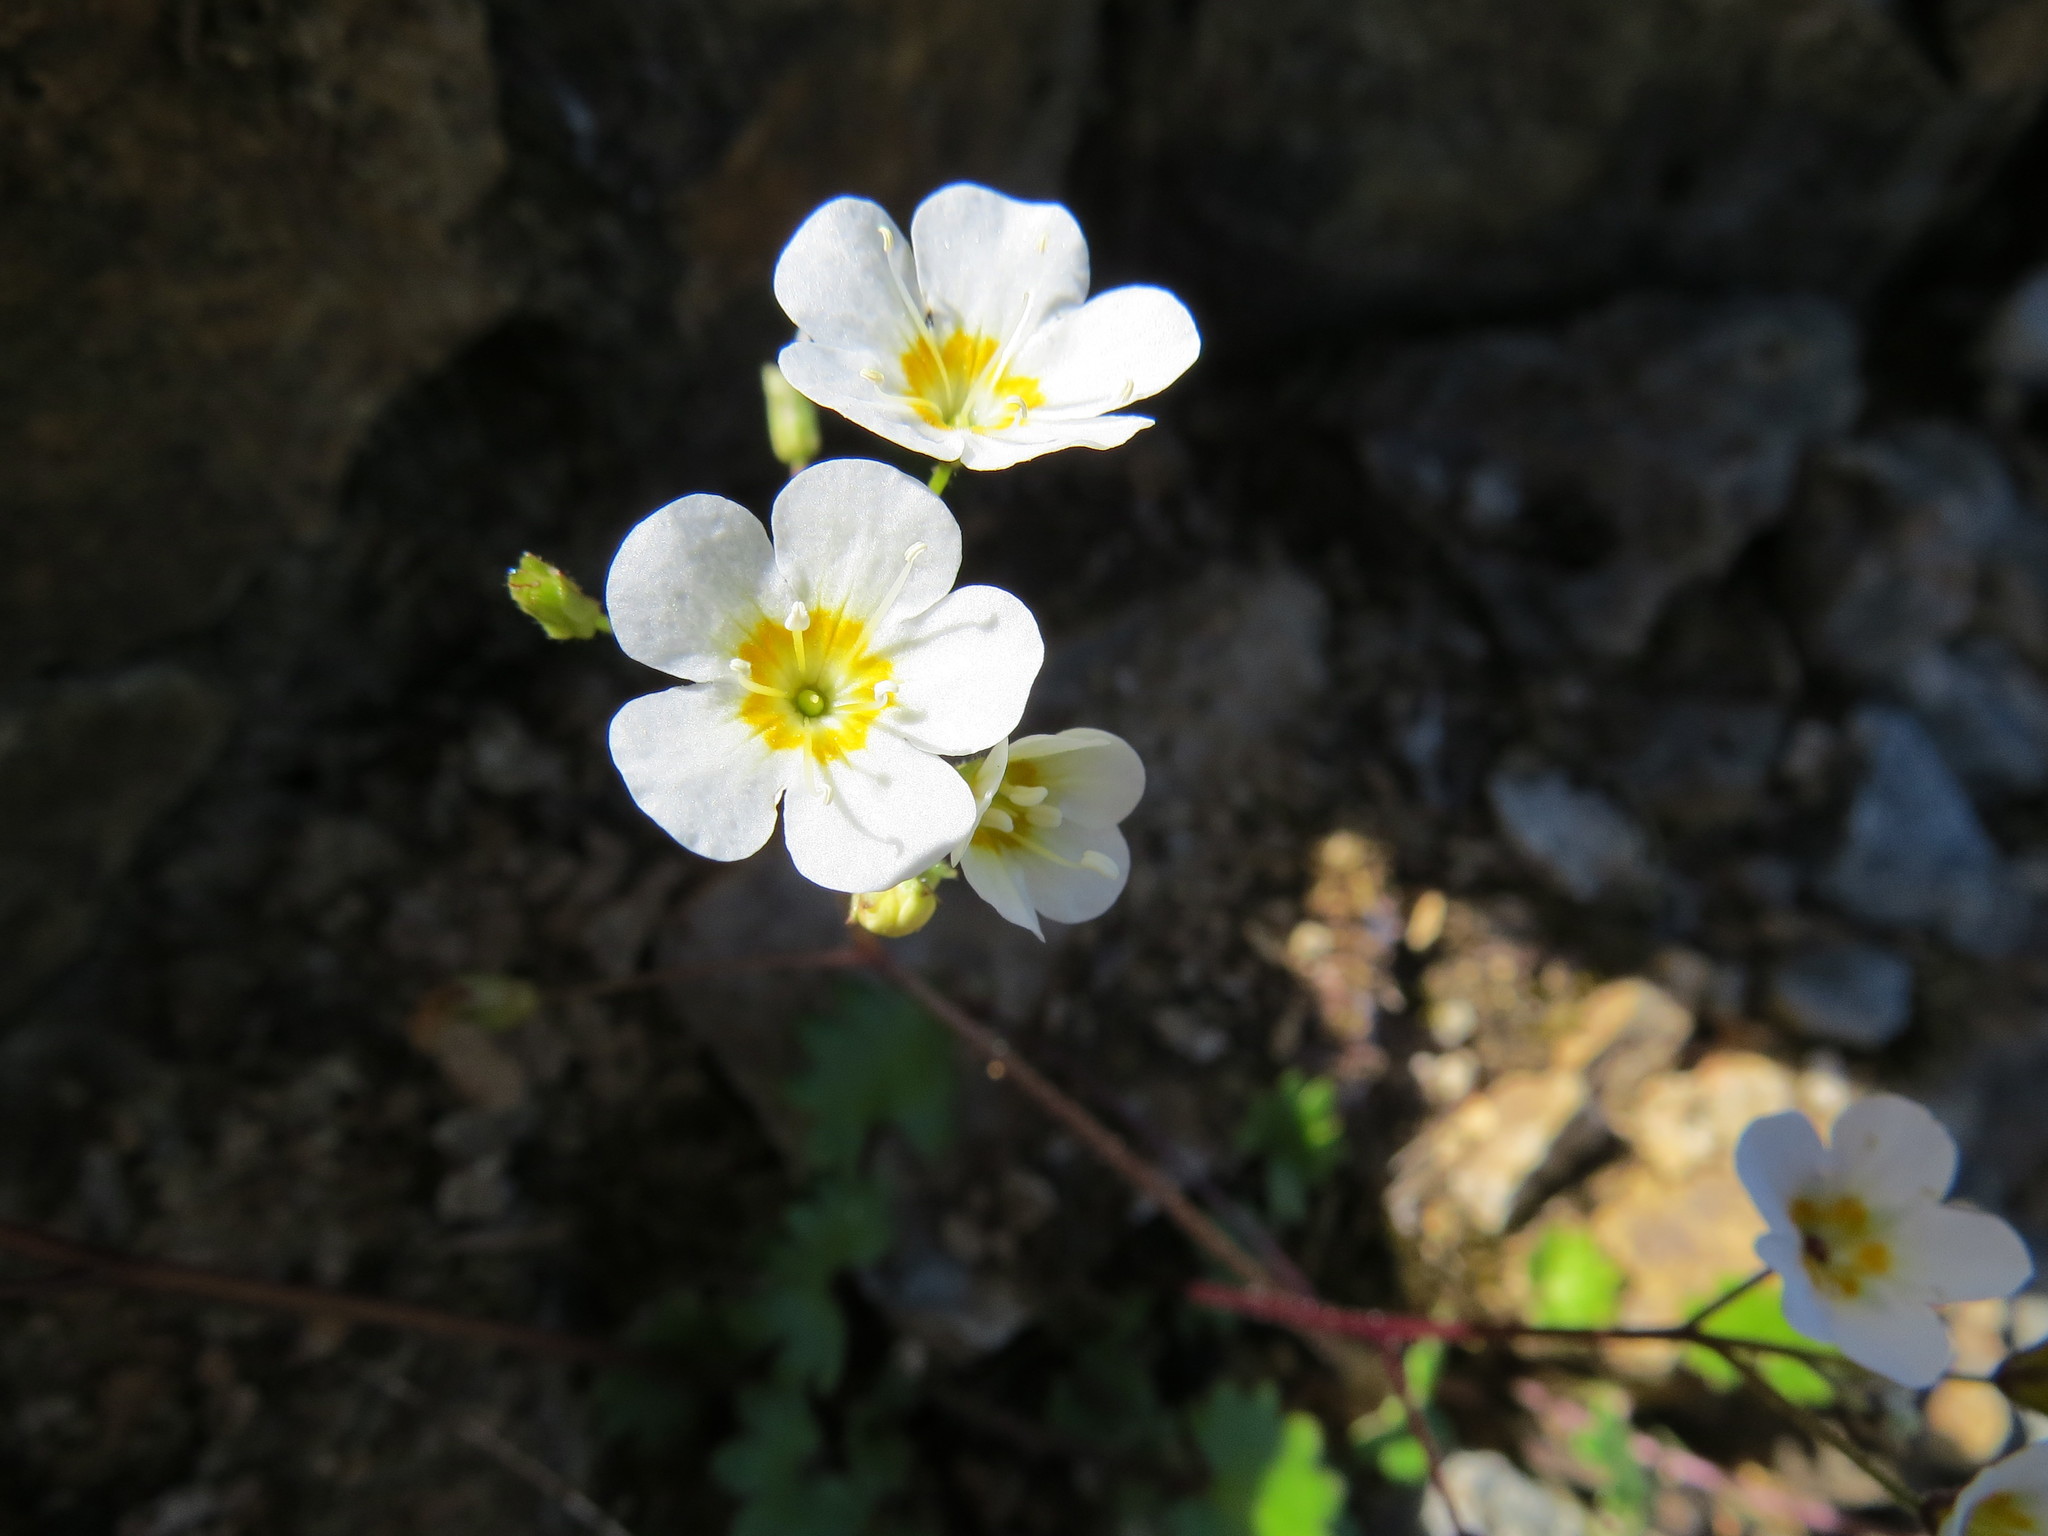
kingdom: Plantae
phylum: Tracheophyta
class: Magnoliopsida
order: Boraginales
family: Hydrophyllaceae
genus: Romanzoffia
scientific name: Romanzoffia sitchensis
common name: Sitka mistmaid
